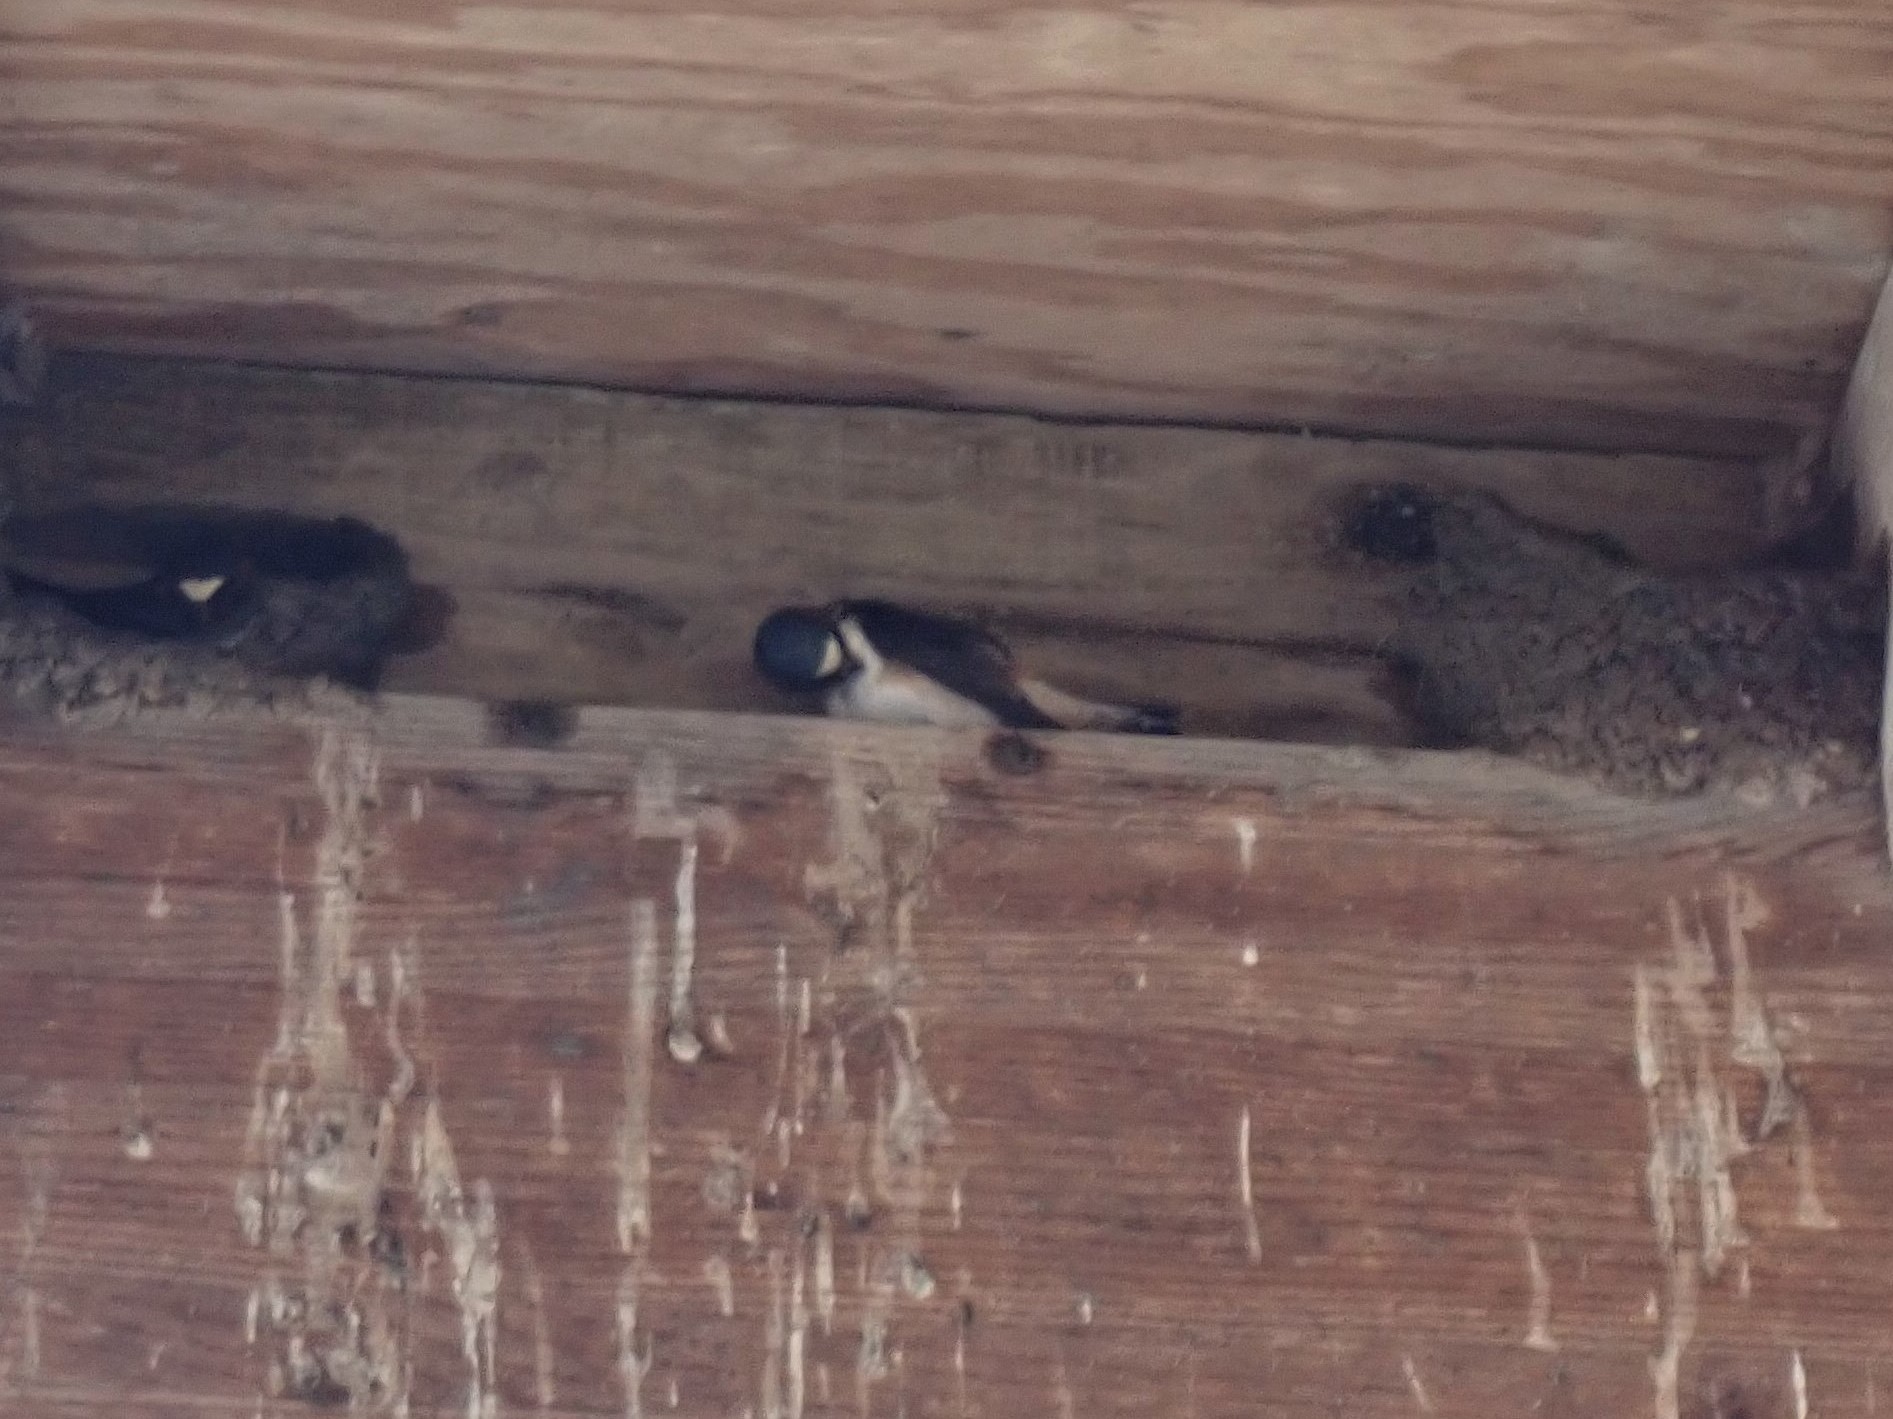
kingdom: Animalia
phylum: Chordata
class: Aves
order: Passeriformes
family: Hirundinidae
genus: Petrochelidon
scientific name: Petrochelidon pyrrhonota
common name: American cliff swallow
